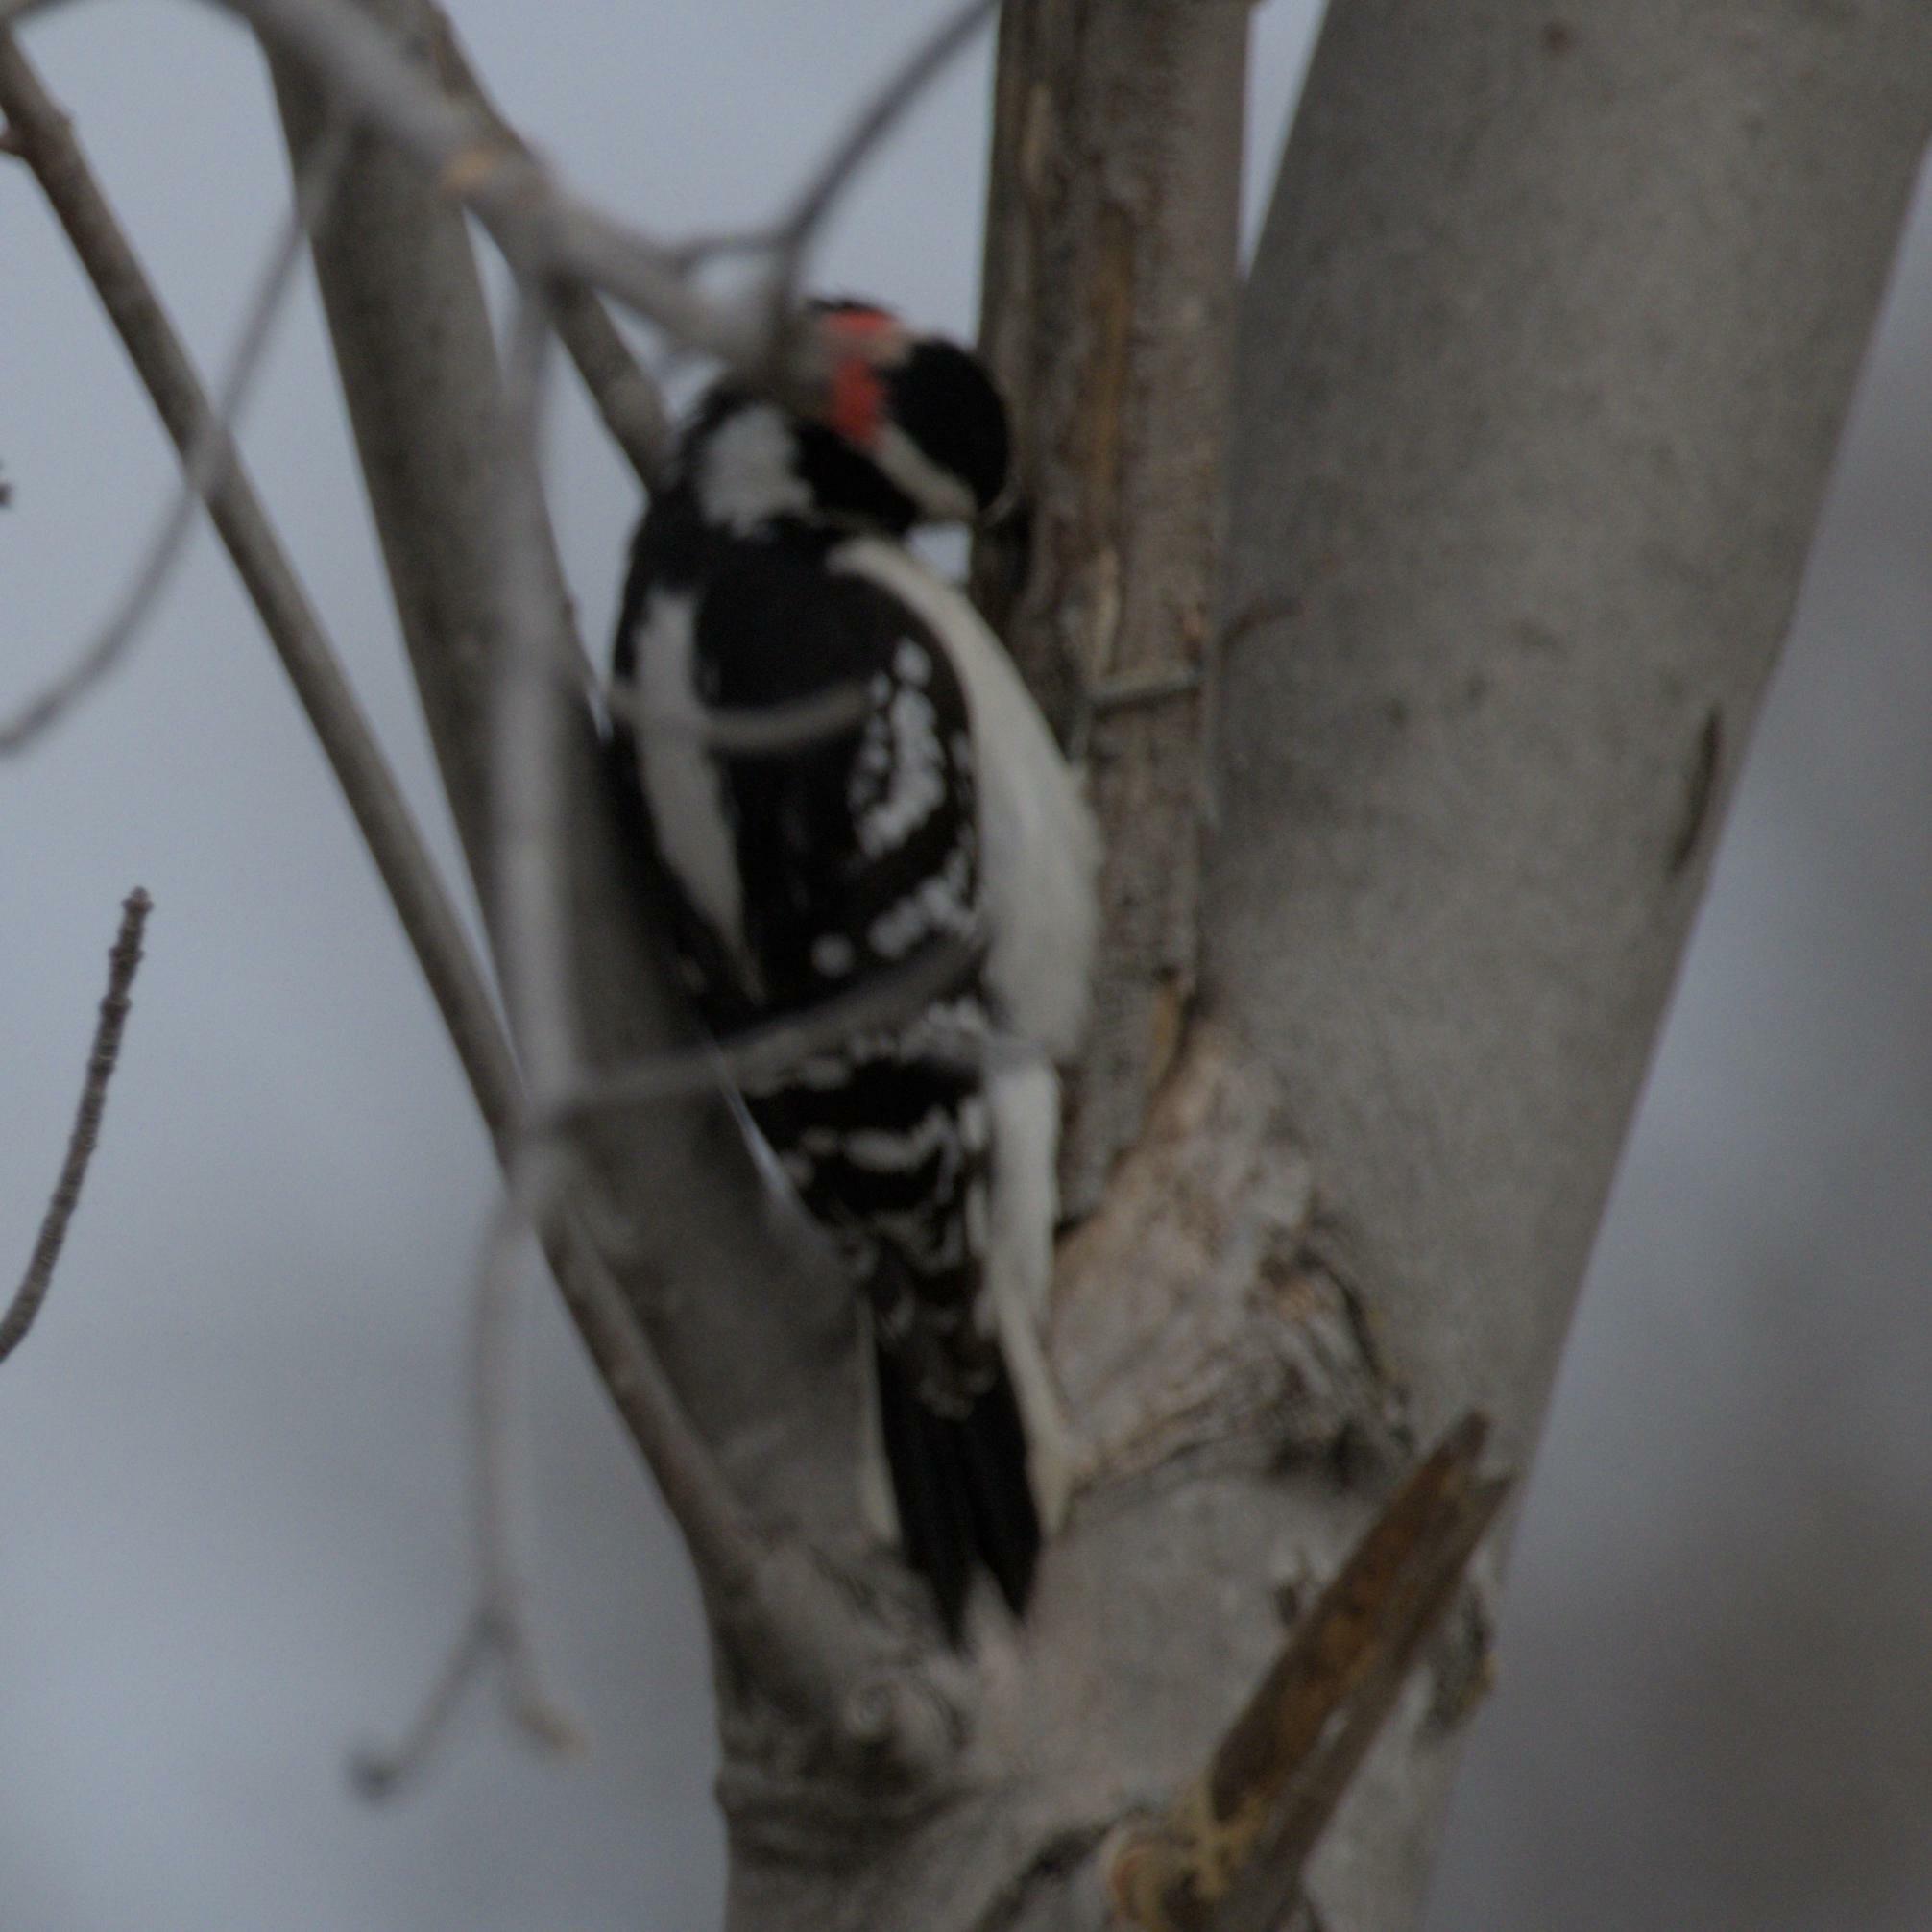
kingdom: Animalia
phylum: Chordata
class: Aves
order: Piciformes
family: Picidae
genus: Dryobates
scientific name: Dryobates pubescens
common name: Downy woodpecker
